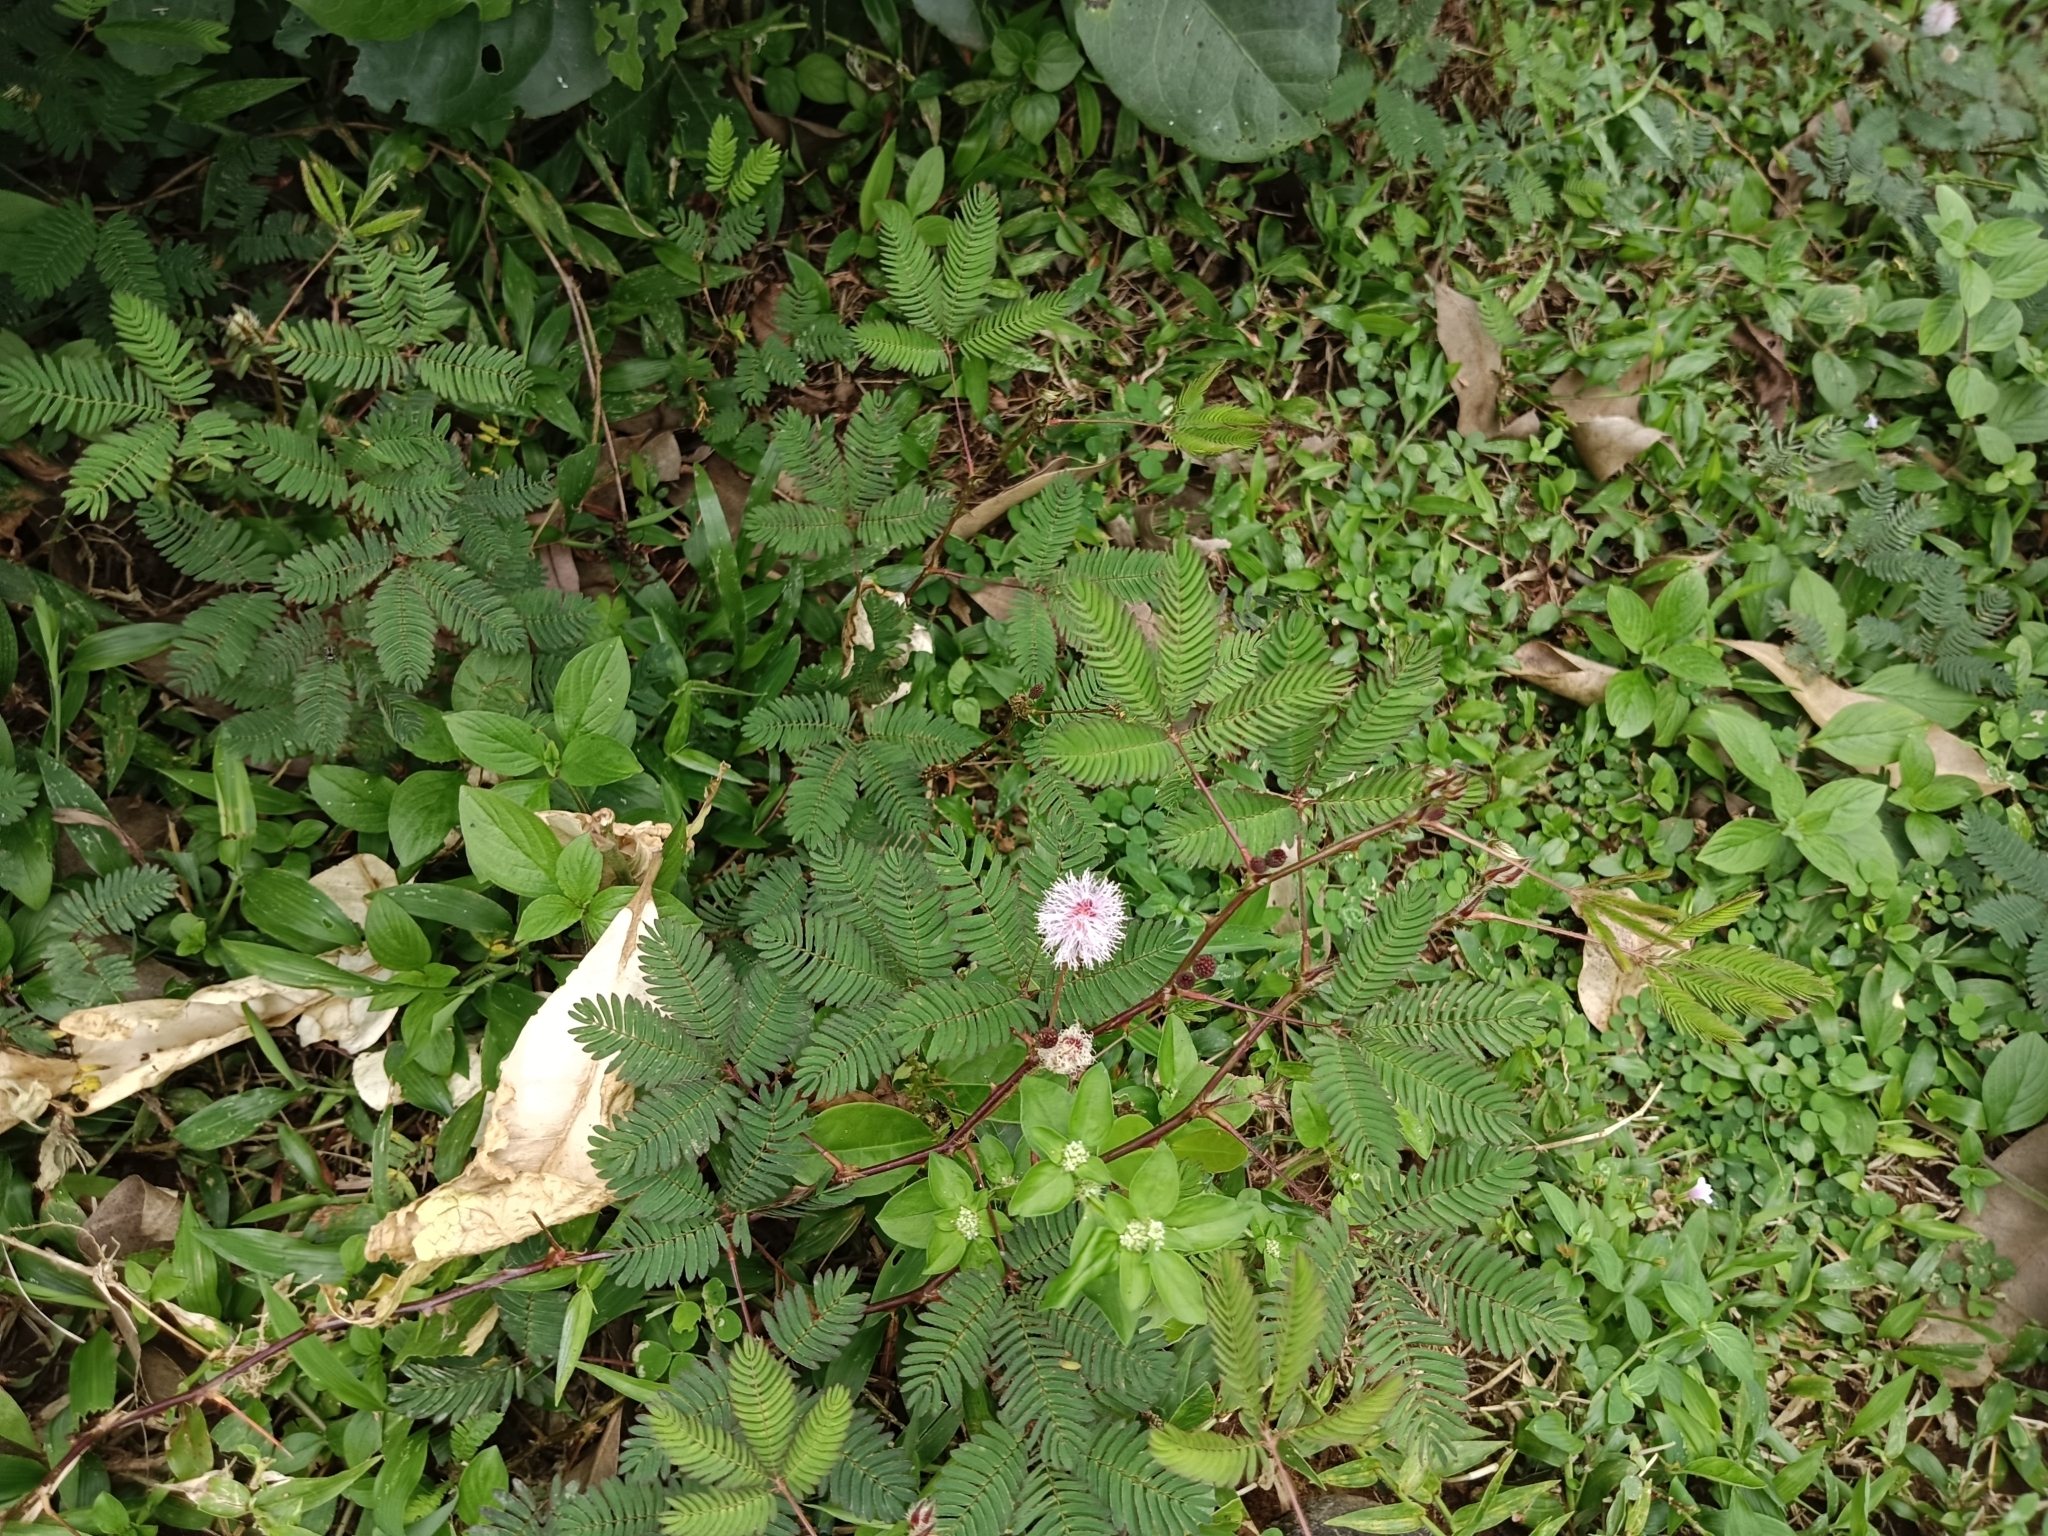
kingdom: Plantae
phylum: Tracheophyta
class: Magnoliopsida
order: Fabales
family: Fabaceae
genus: Mimosa
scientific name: Mimosa pudica
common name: Sensitive plant
